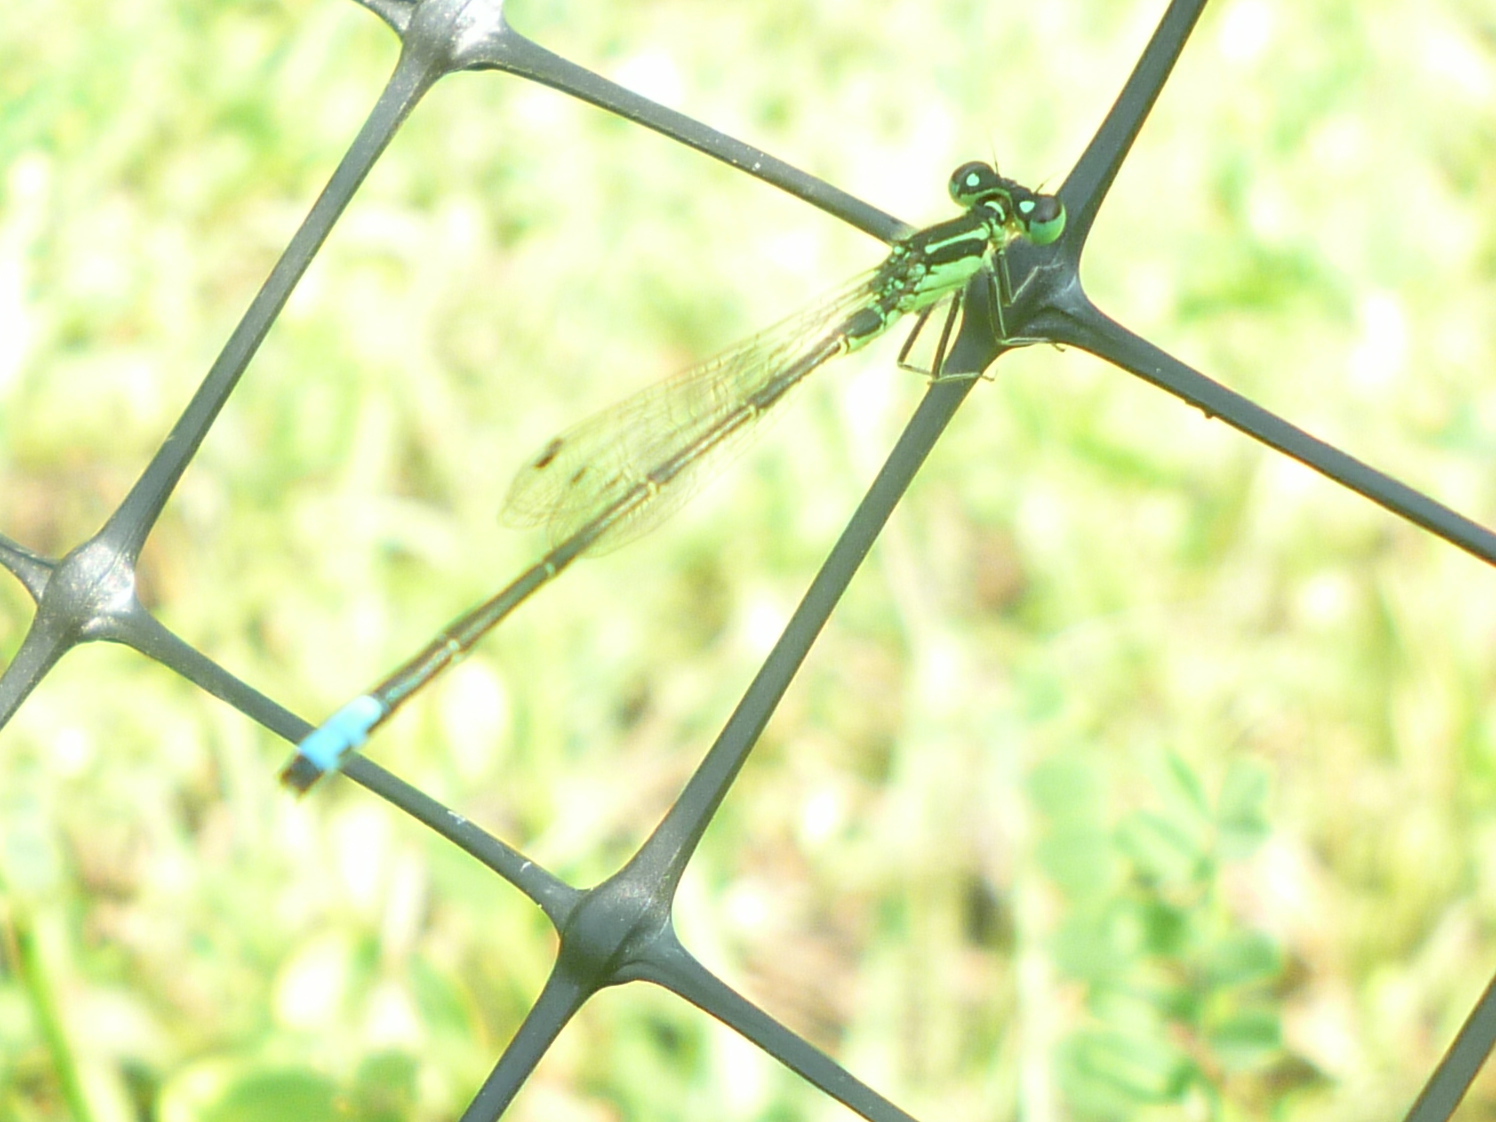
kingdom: Animalia
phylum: Arthropoda
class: Insecta
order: Odonata
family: Coenagrionidae
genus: Ischnura
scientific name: Ischnura verticalis
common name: Eastern forktail
